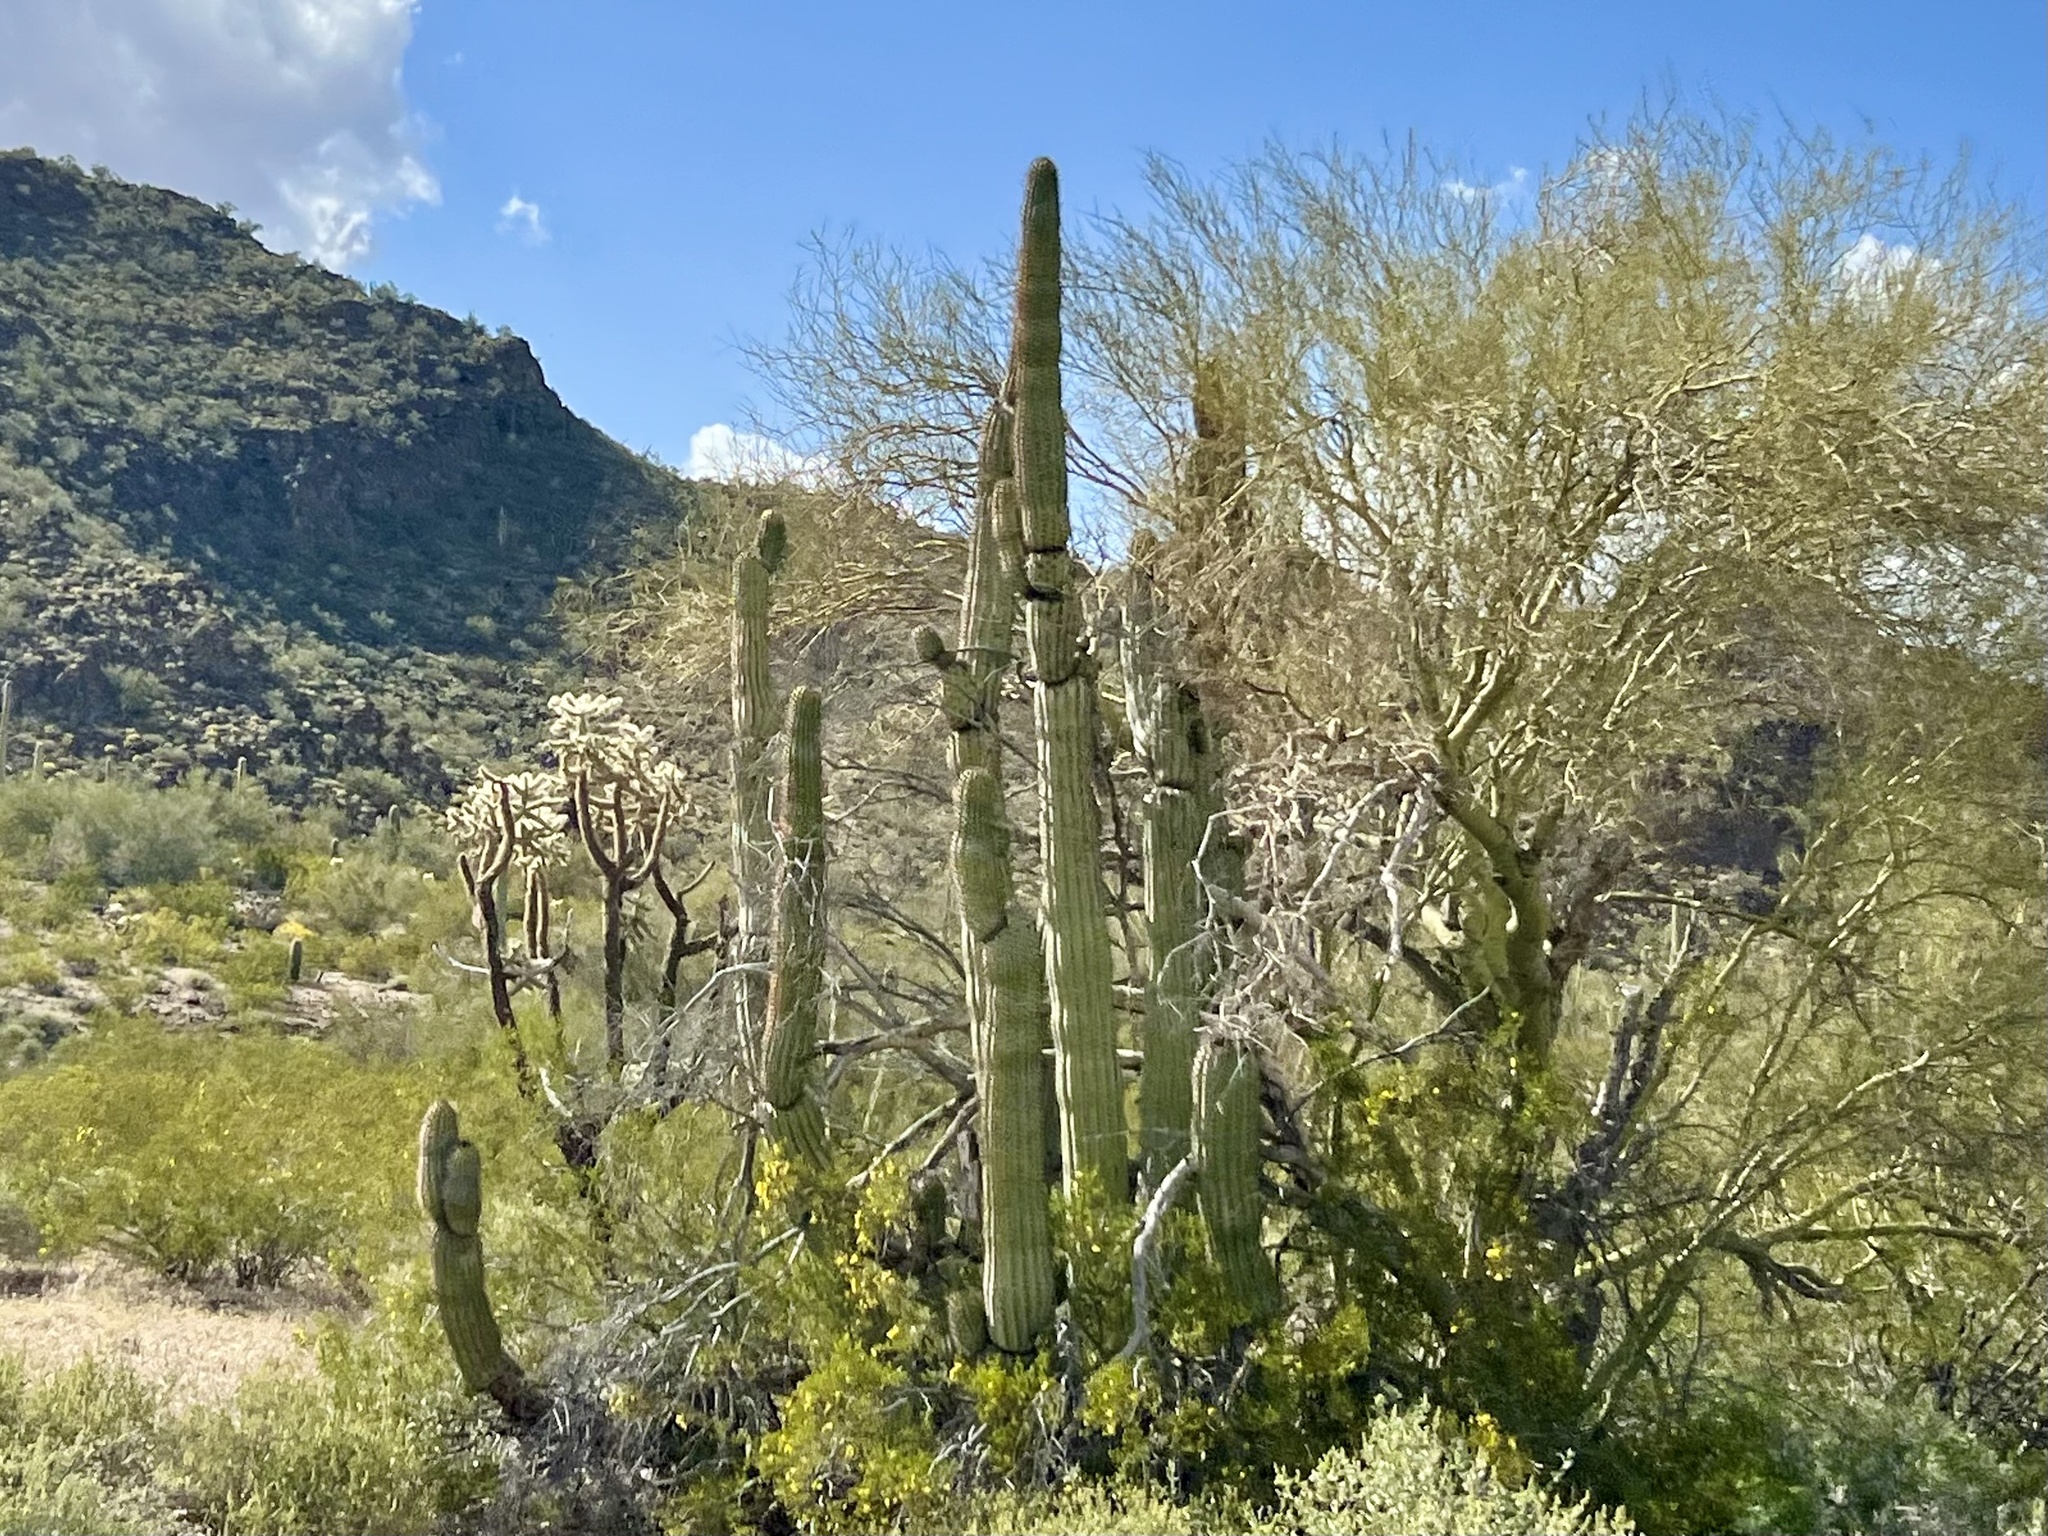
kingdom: Plantae
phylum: Tracheophyta
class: Magnoliopsida
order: Caryophyllales
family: Cactaceae
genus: Stenocereus
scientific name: Stenocereus thurberi
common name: Organ pipe cactus
